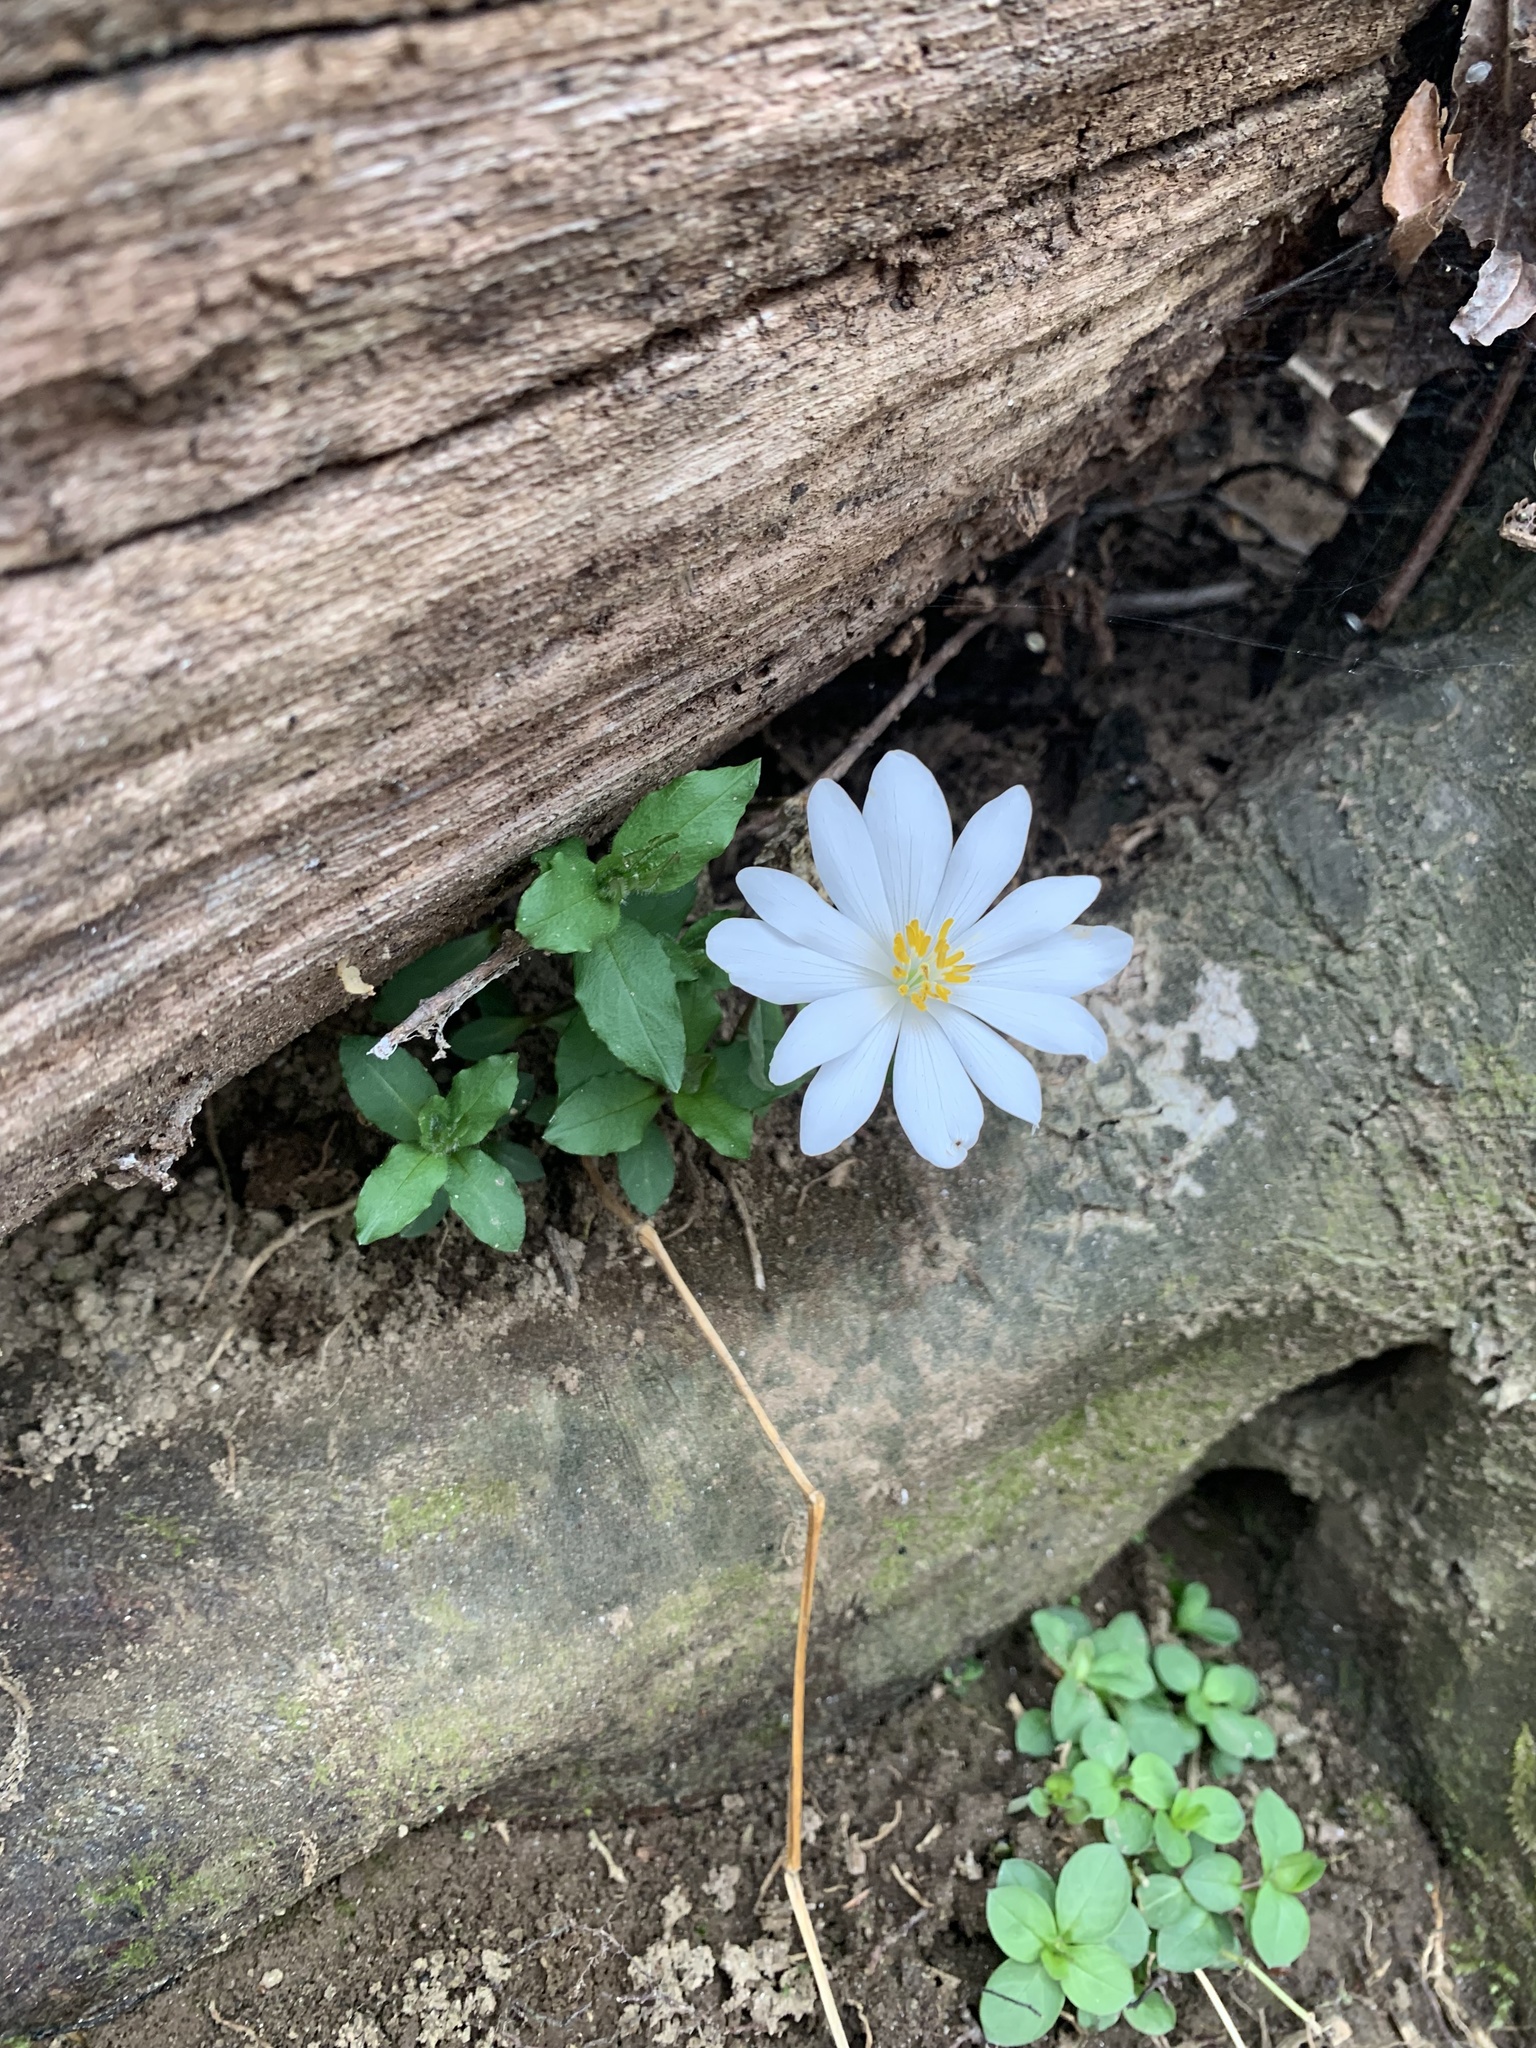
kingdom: Plantae
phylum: Tracheophyta
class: Magnoliopsida
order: Ranunculales
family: Papaveraceae
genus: Sanguinaria
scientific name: Sanguinaria canadensis
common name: Bloodroot
